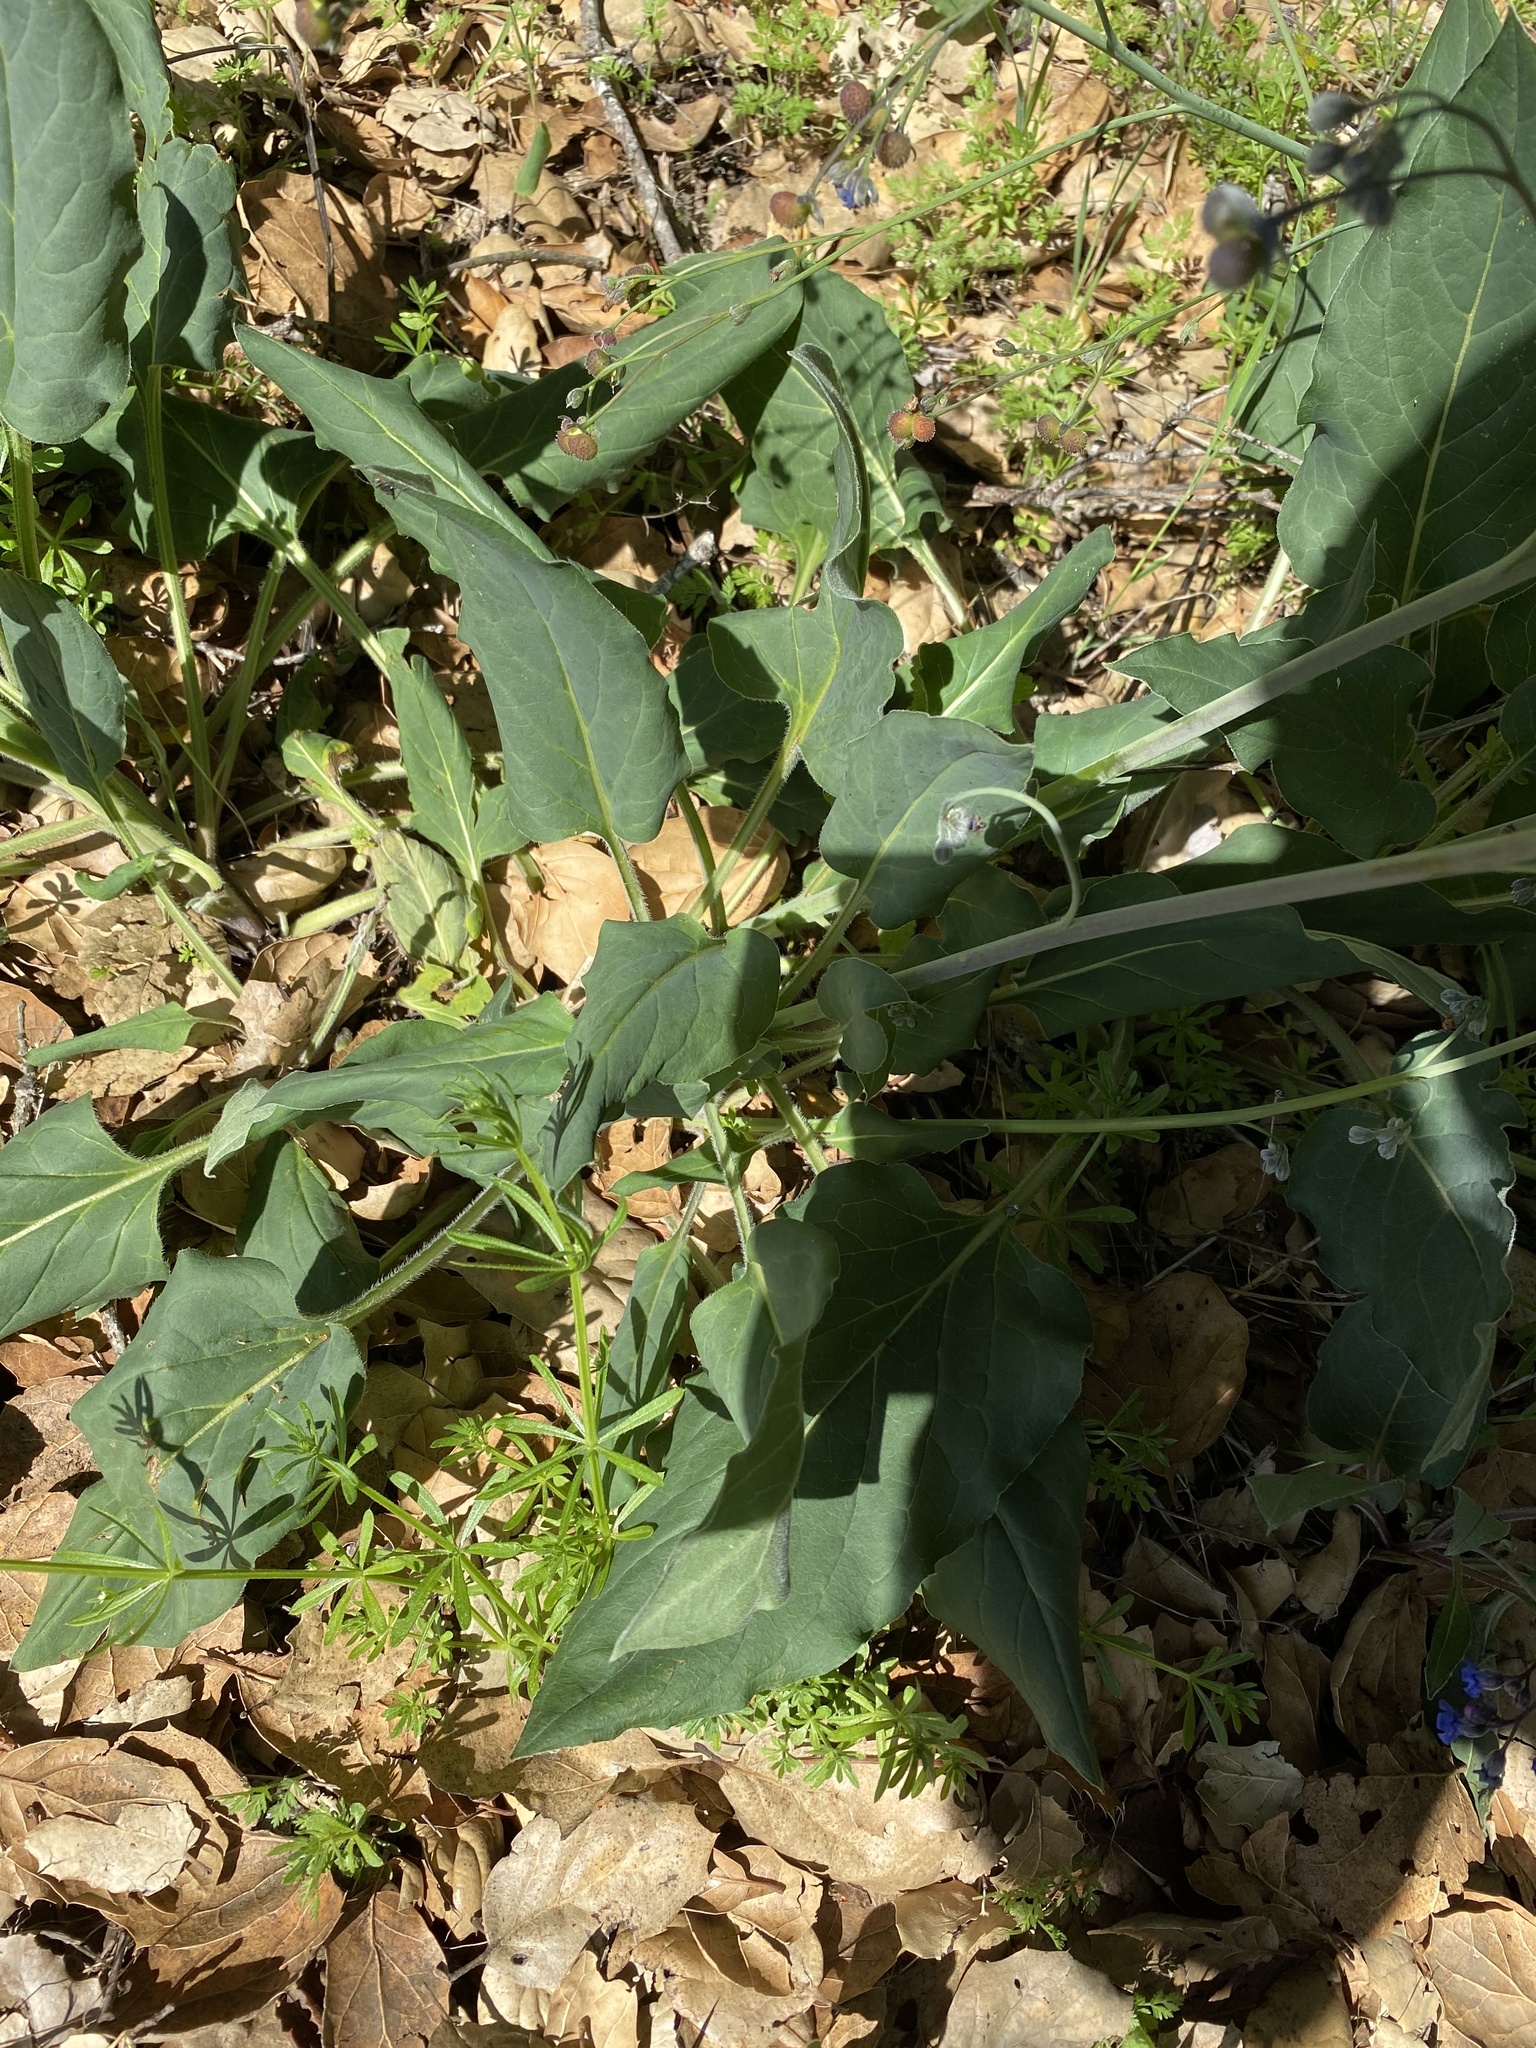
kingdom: Plantae
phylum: Tracheophyta
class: Magnoliopsida
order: Boraginales
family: Boraginaceae
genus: Adelinia
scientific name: Adelinia grande
